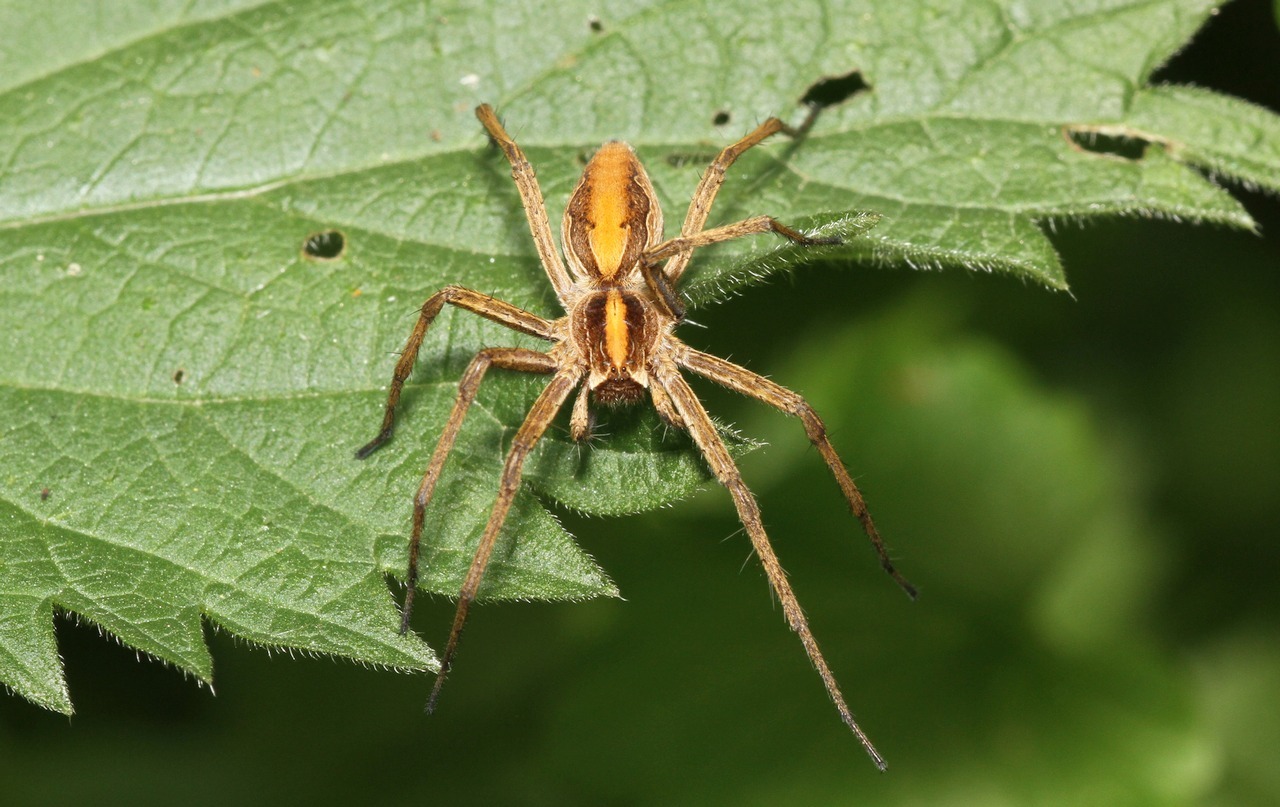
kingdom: Animalia
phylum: Arthropoda
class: Arachnida
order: Araneae
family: Pisauridae
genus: Pisaura
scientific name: Pisaura mirabilis
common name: Tent spider
